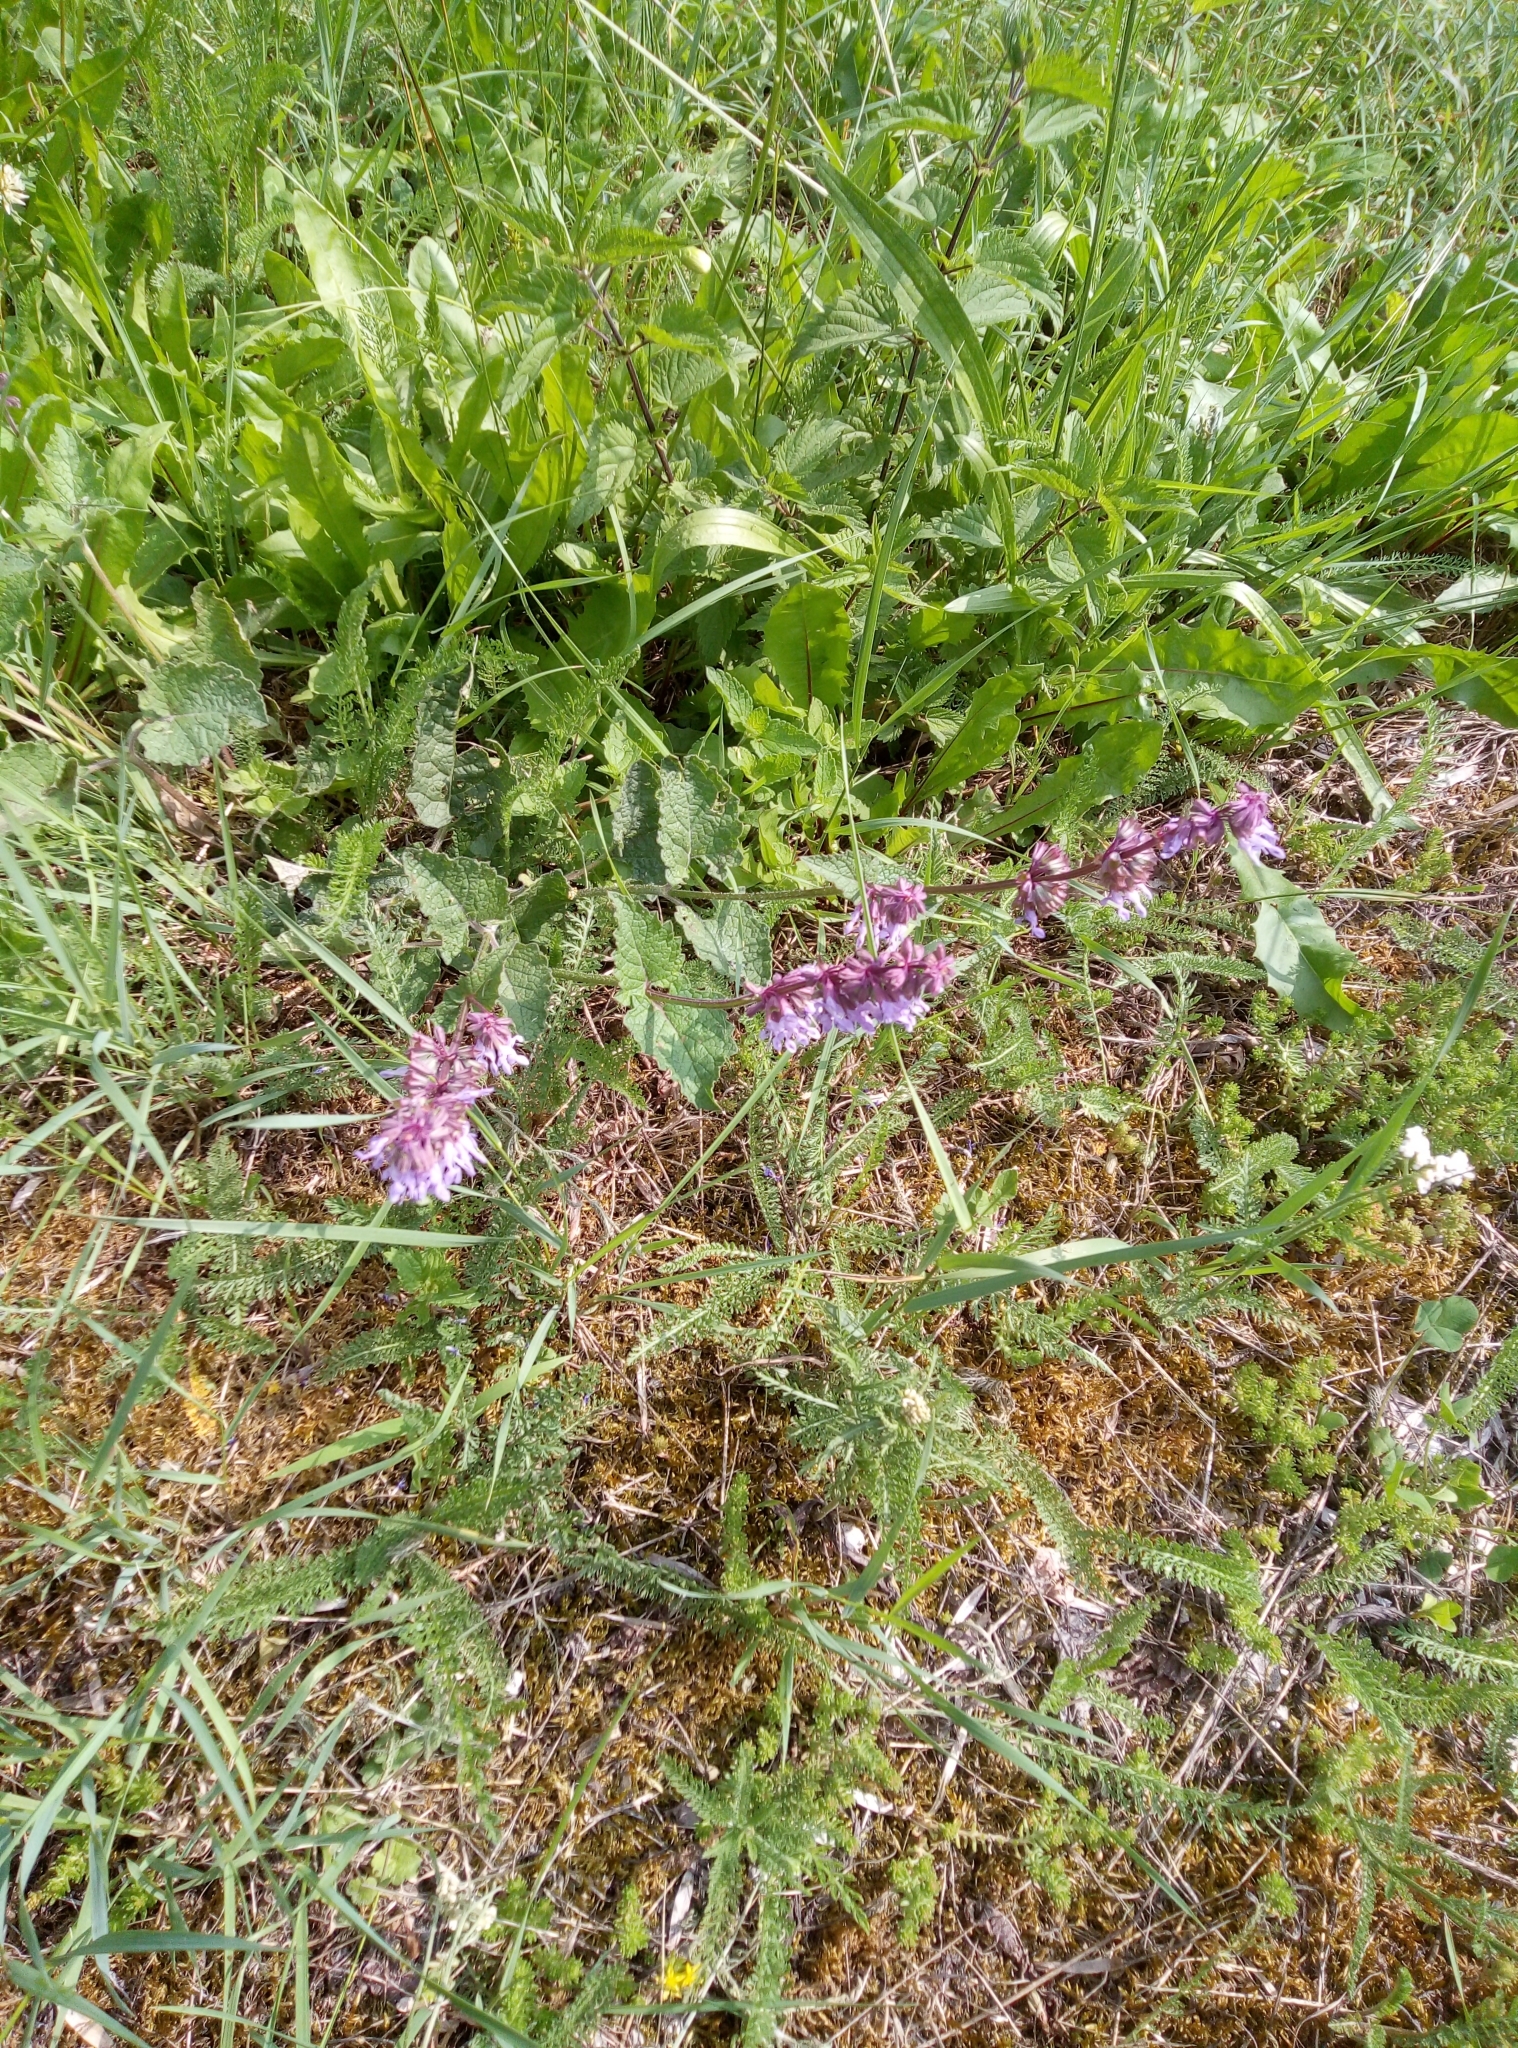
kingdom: Plantae
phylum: Tracheophyta
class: Magnoliopsida
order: Lamiales
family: Lamiaceae
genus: Salvia
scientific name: Salvia verticillata
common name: Whorled clary
